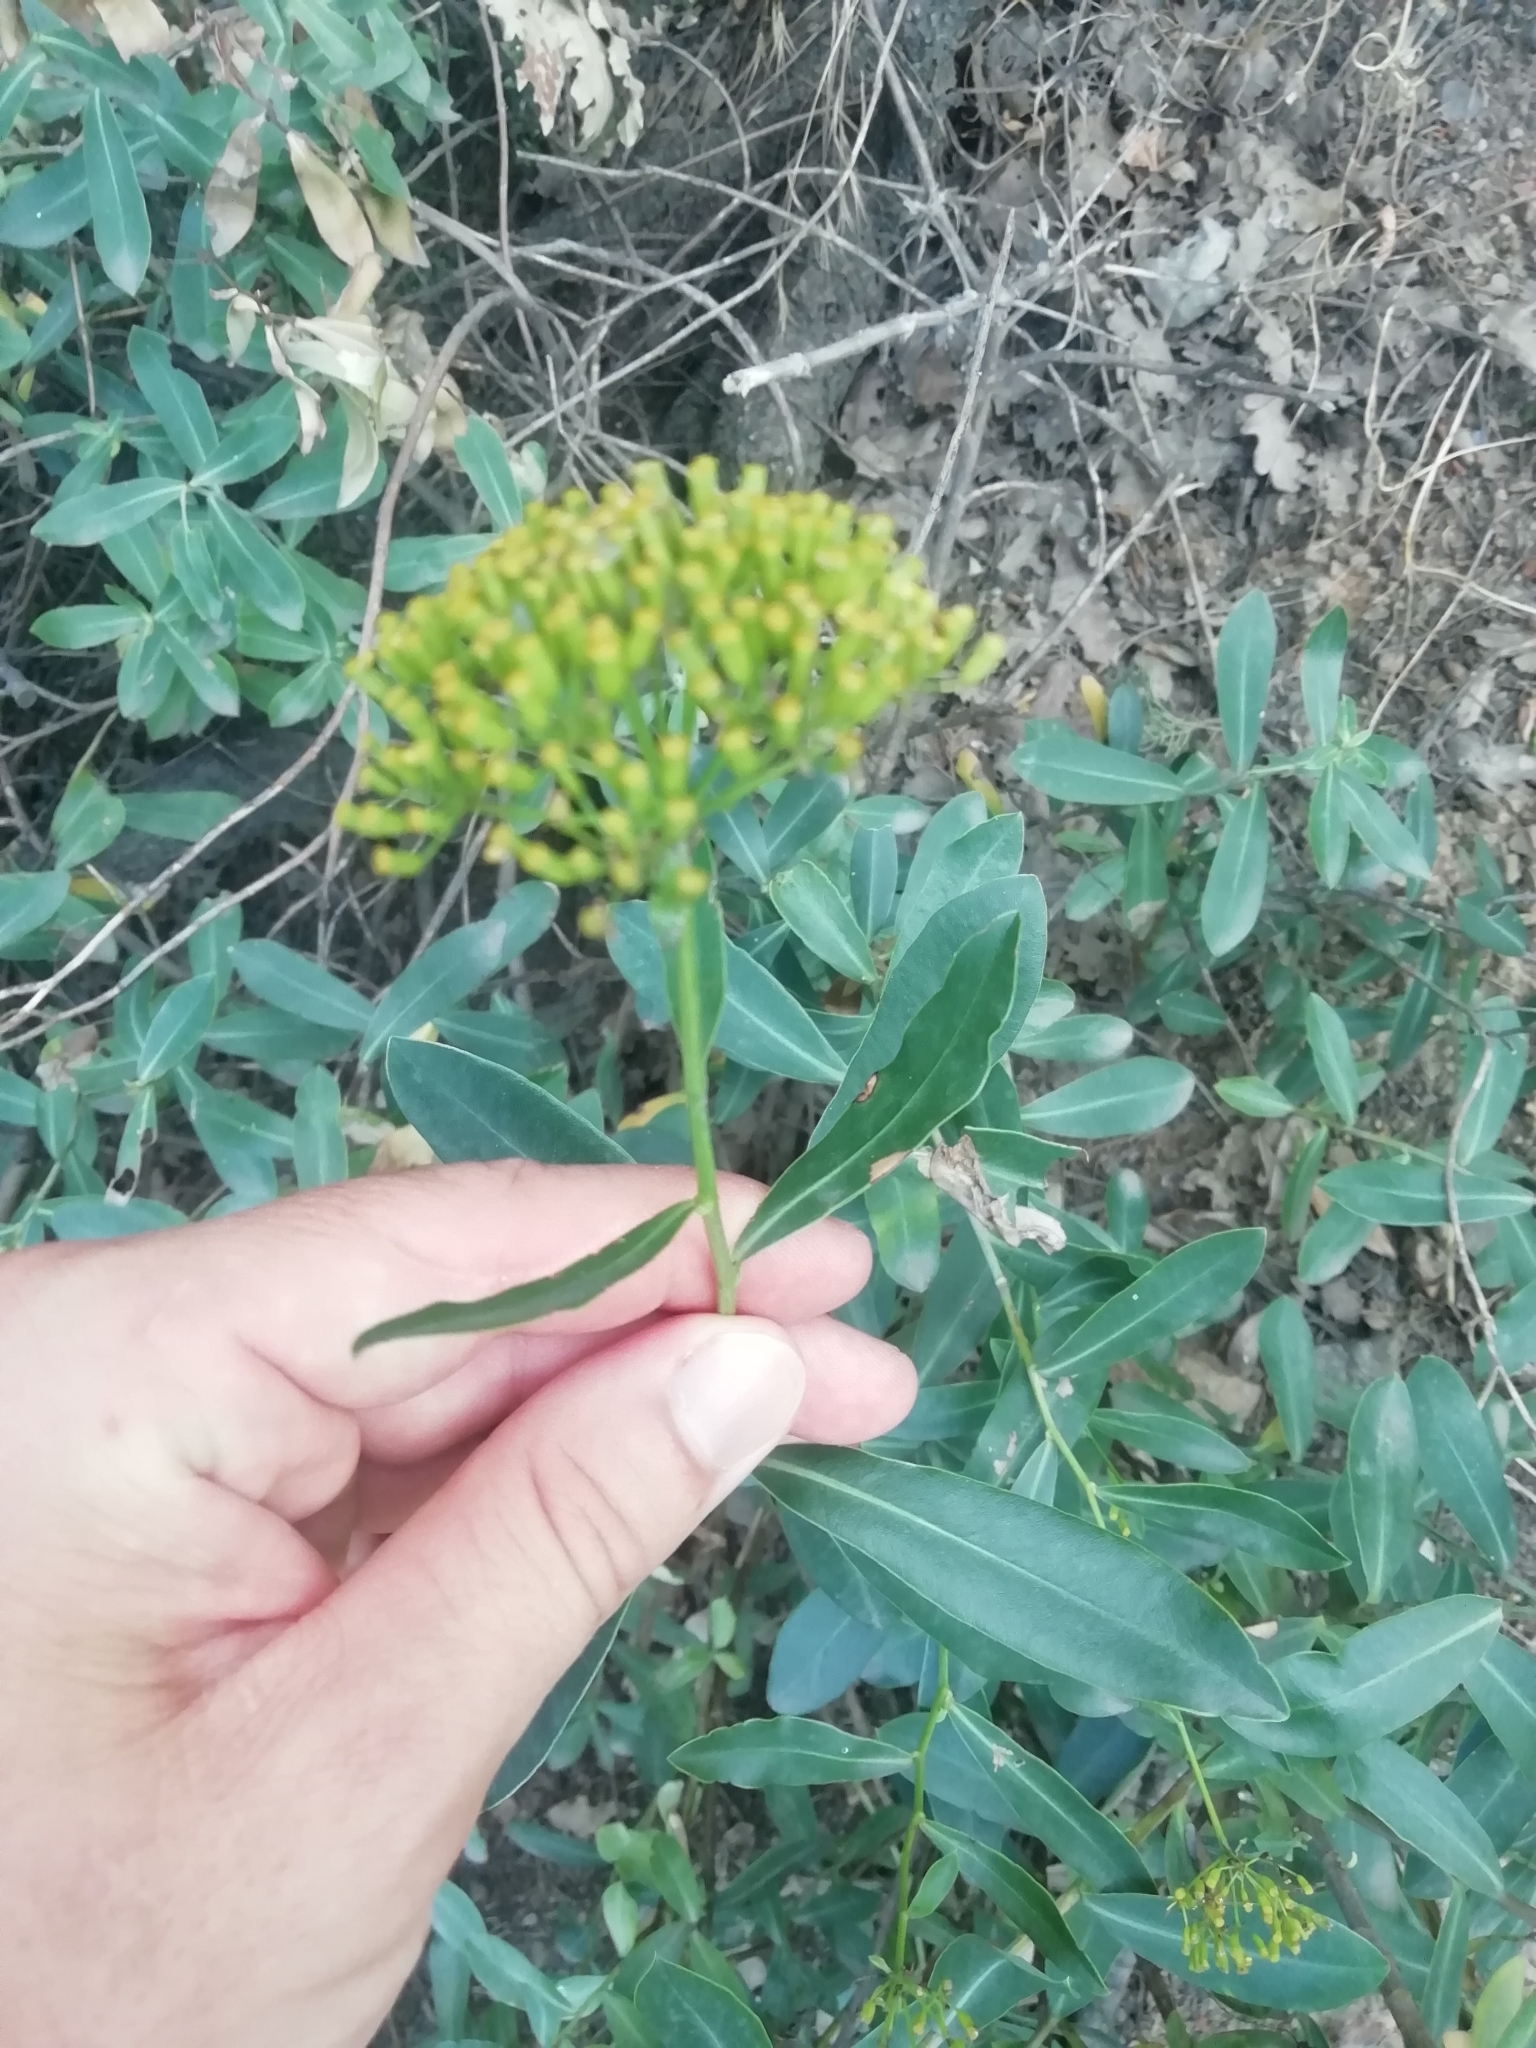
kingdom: Plantae
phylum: Tracheophyta
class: Magnoliopsida
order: Apiales
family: Apiaceae
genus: Bupleurum
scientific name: Bupleurum fruticosum
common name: Shrubby hare's-ear
